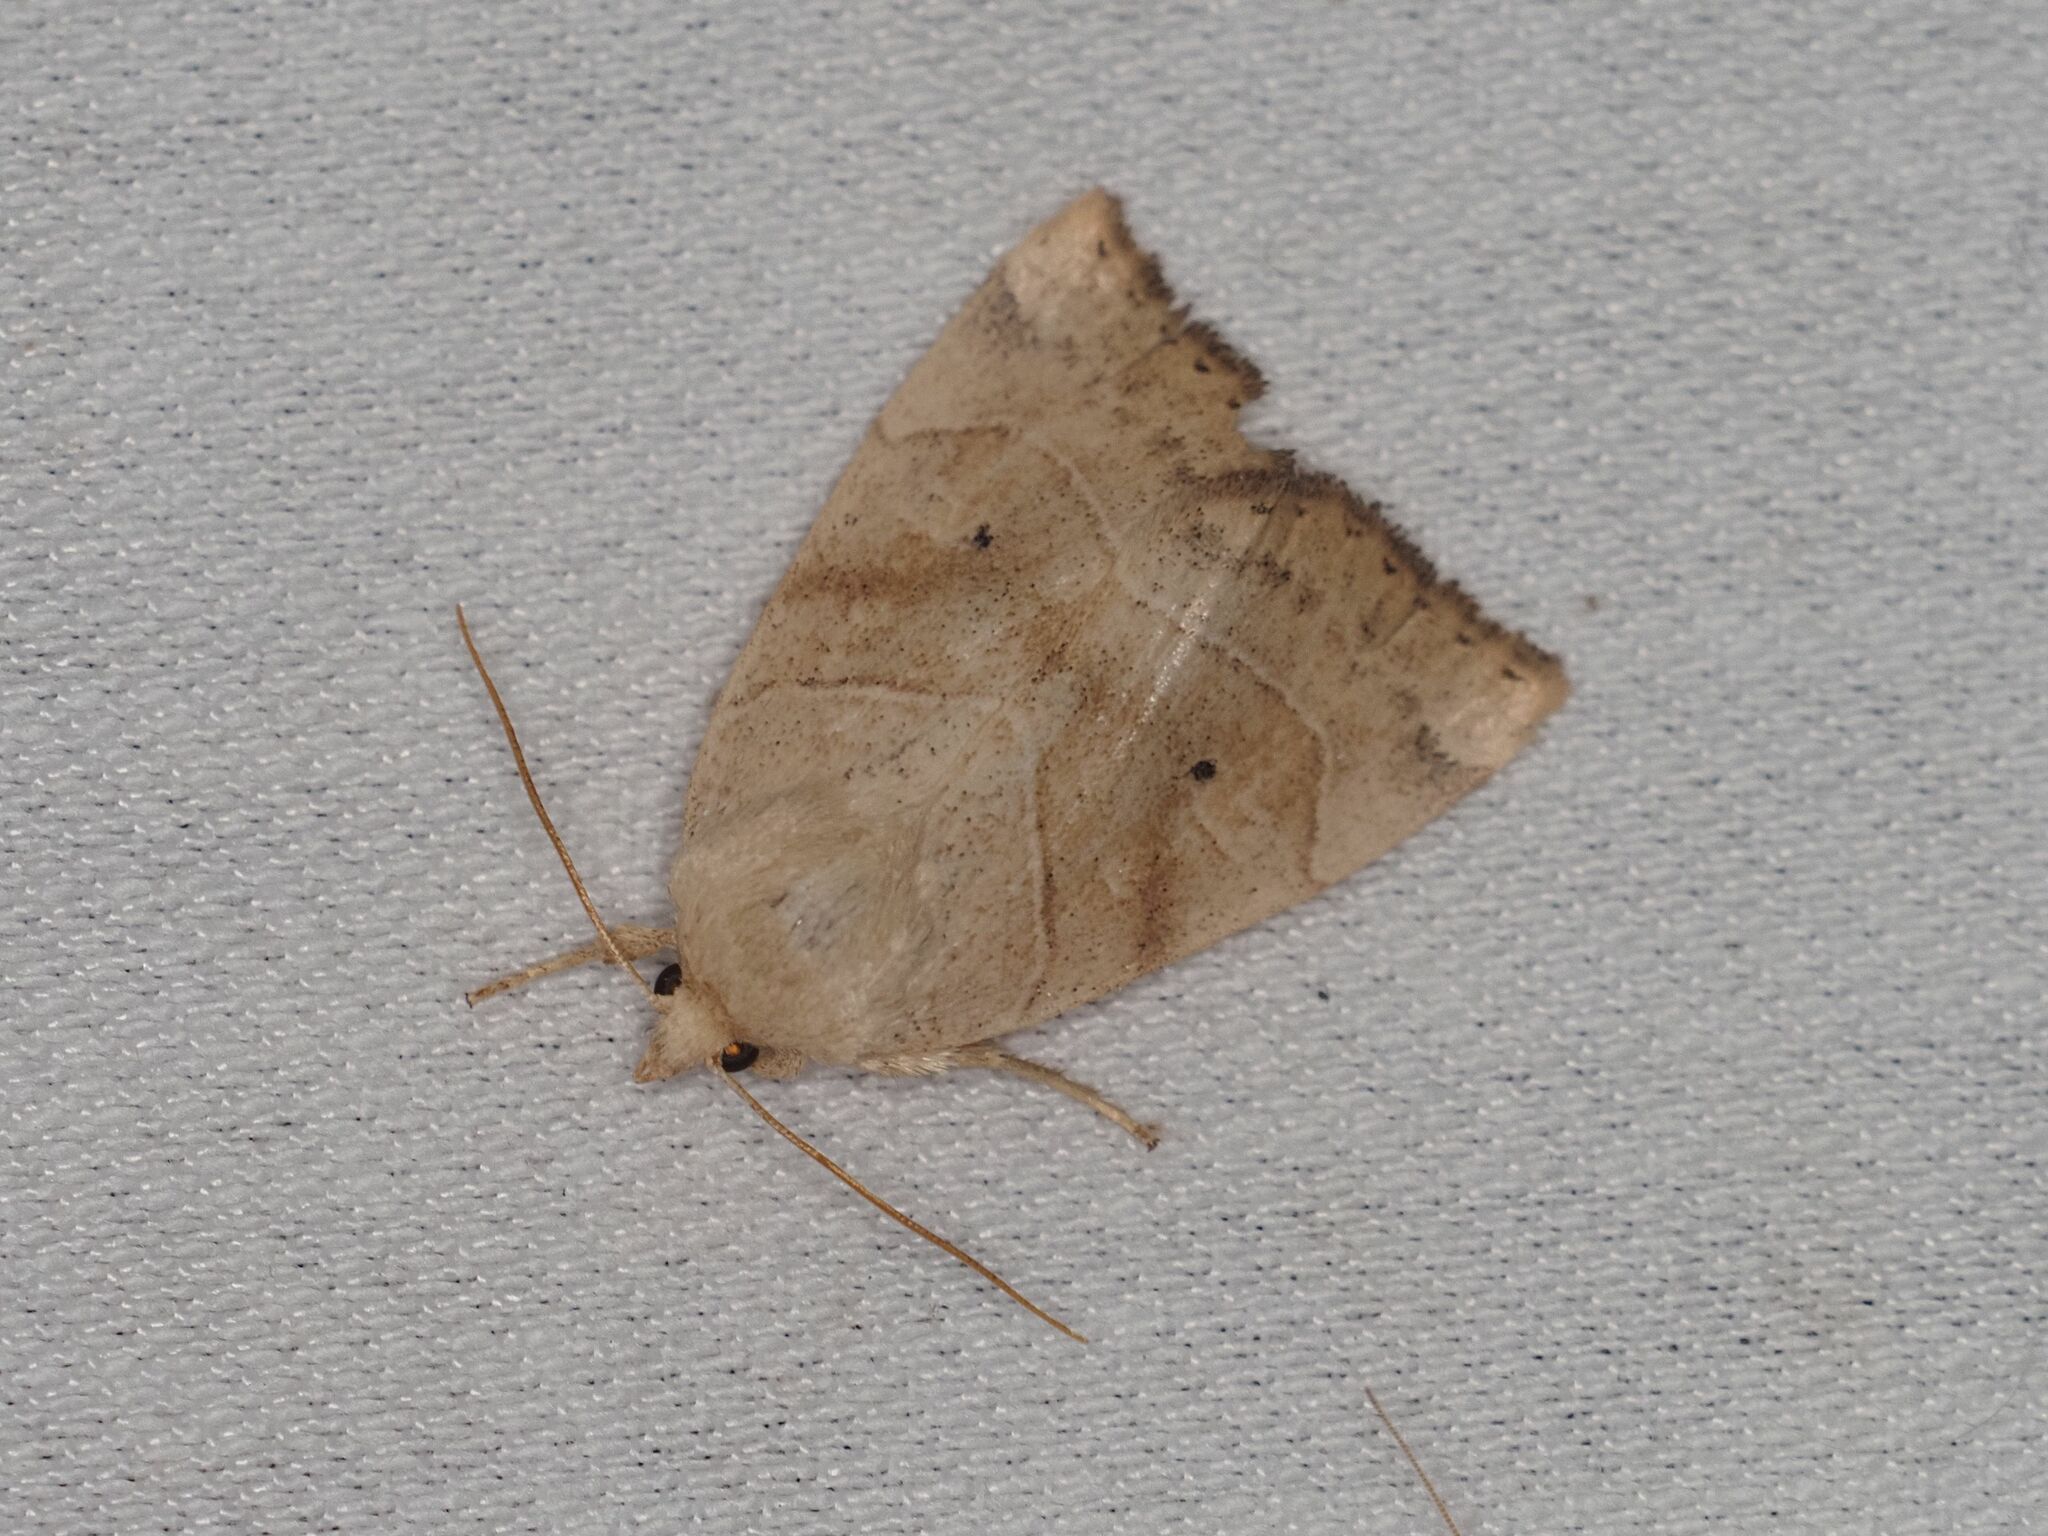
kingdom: Animalia
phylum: Arthropoda
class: Insecta
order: Lepidoptera
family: Noctuidae
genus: Cosmia
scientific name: Cosmia trapezina
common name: Dun-bar
